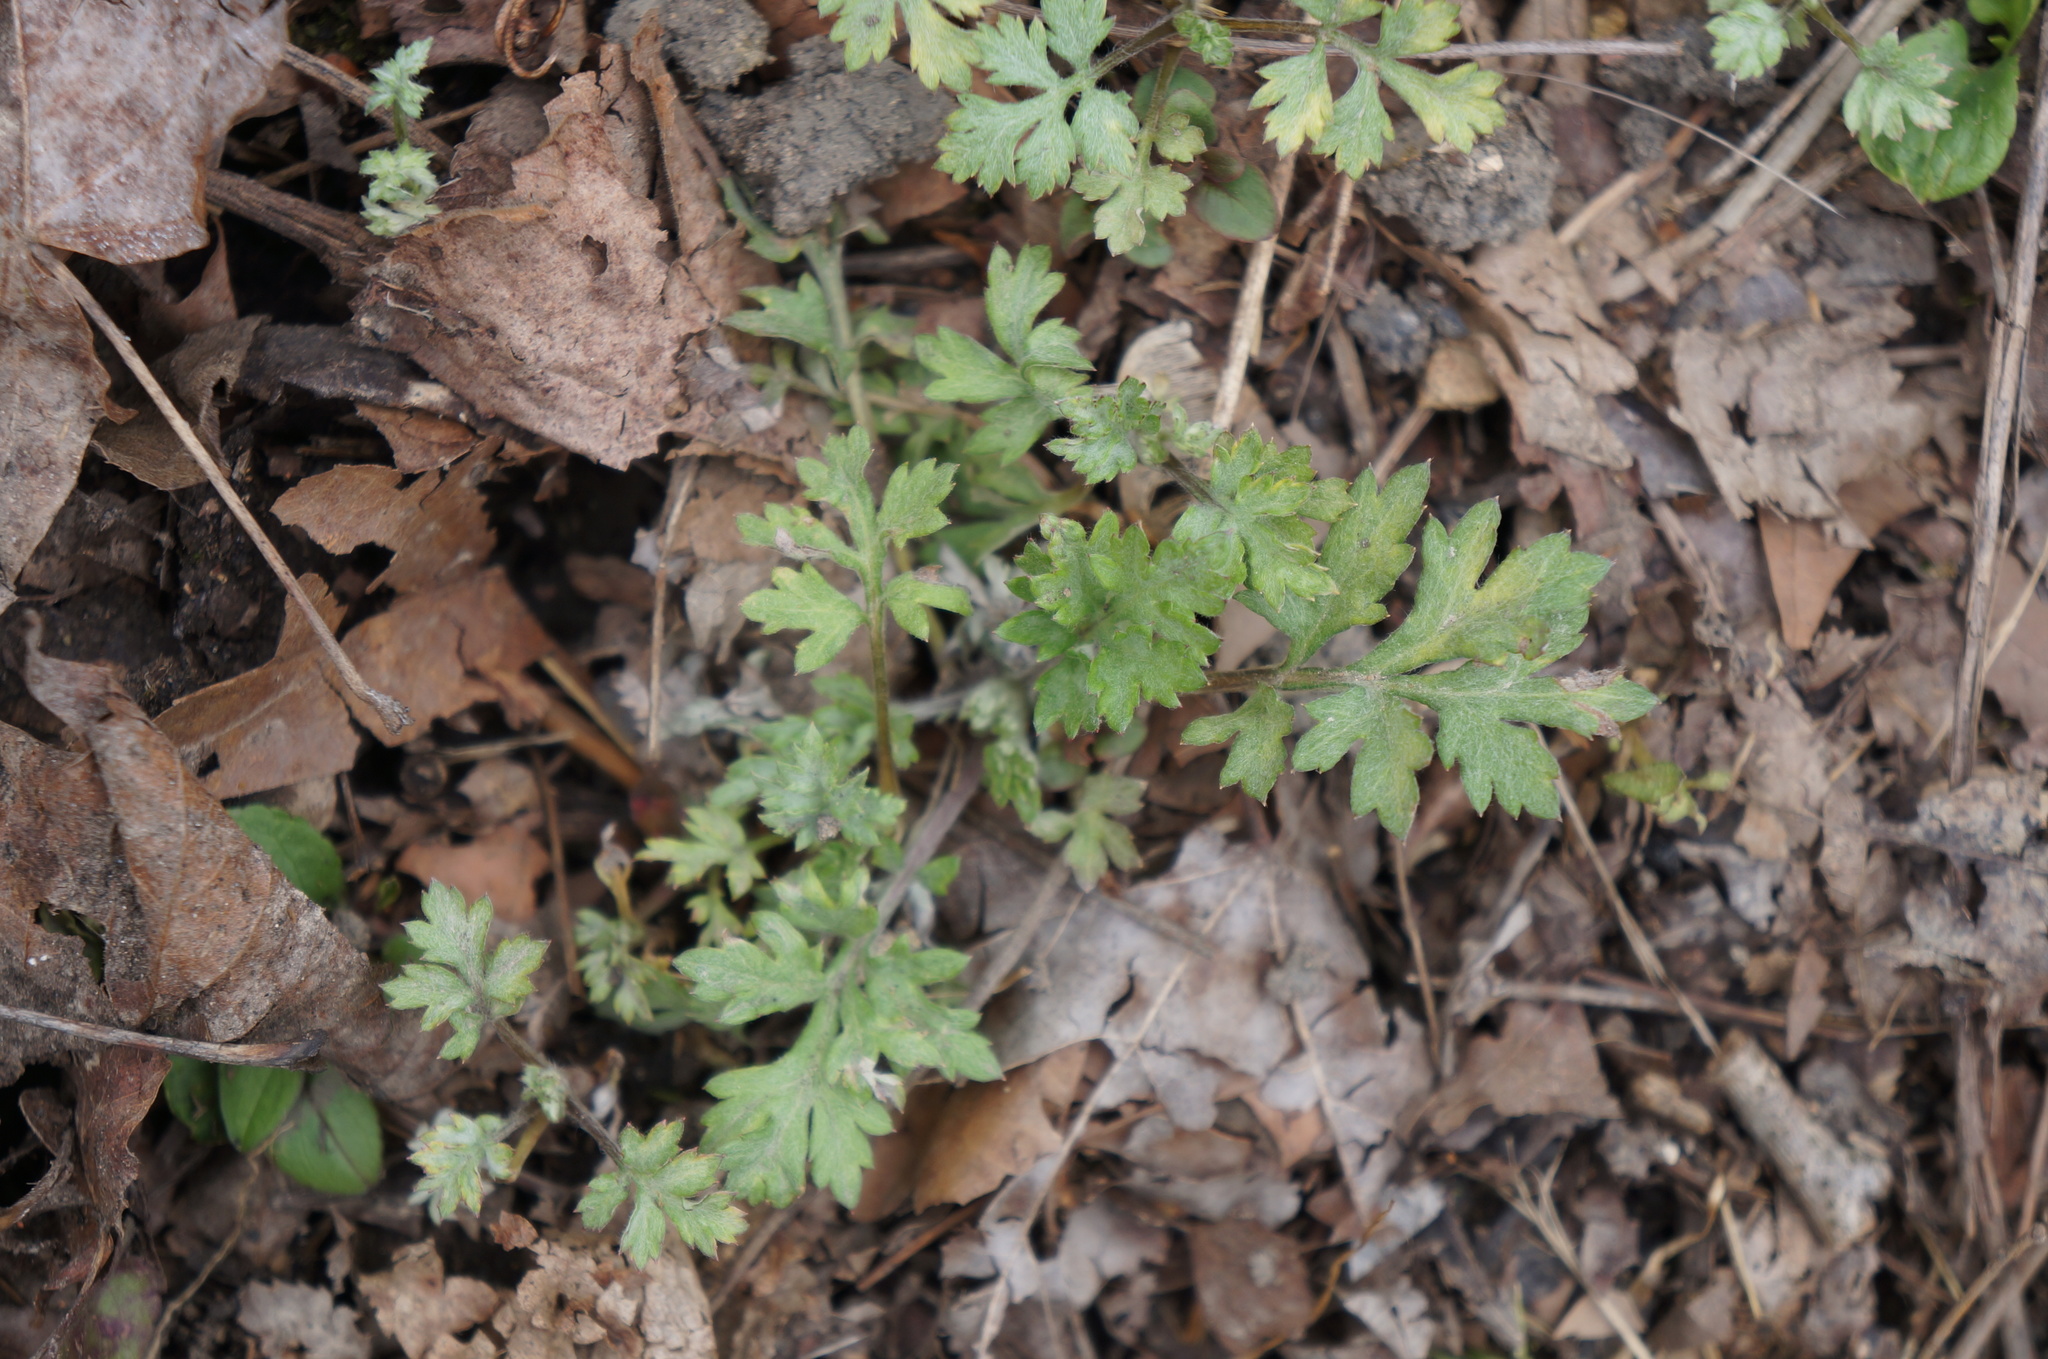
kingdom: Plantae
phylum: Tracheophyta
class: Magnoliopsida
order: Asterales
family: Asteraceae
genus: Artemisia
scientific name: Artemisia vulgaris
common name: Mugwort
